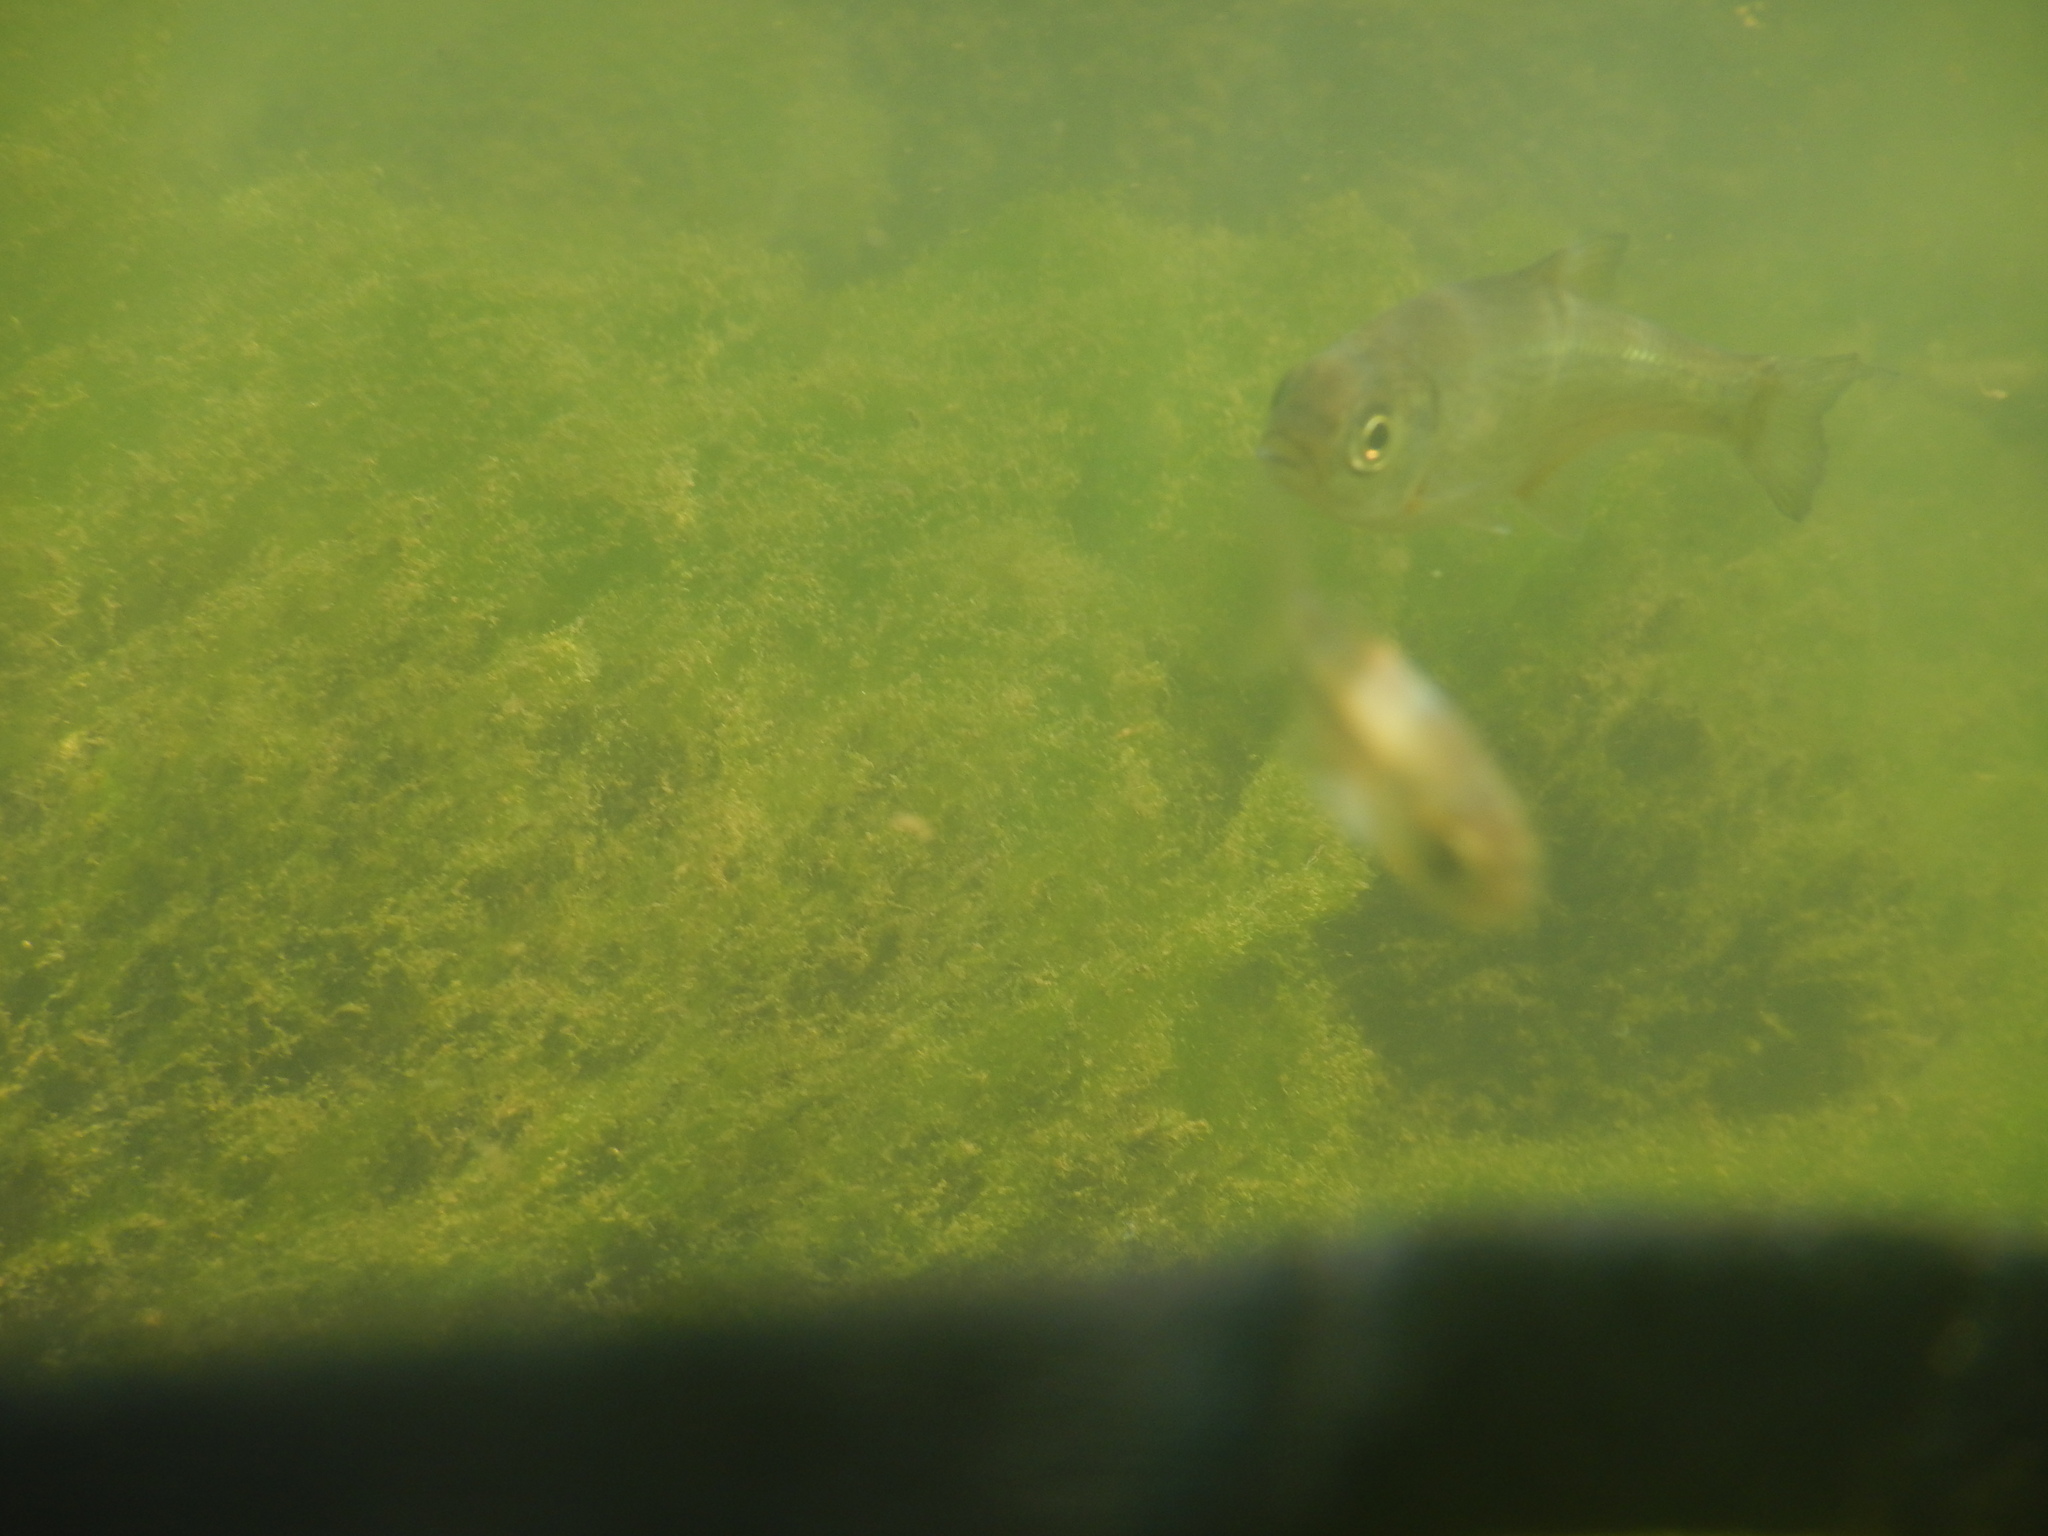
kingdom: Animalia
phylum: Chordata
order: Cypriniformes
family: Cyprinidae
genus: Alburnoides
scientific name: Alburnoides bipunctatus
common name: Spirlin
